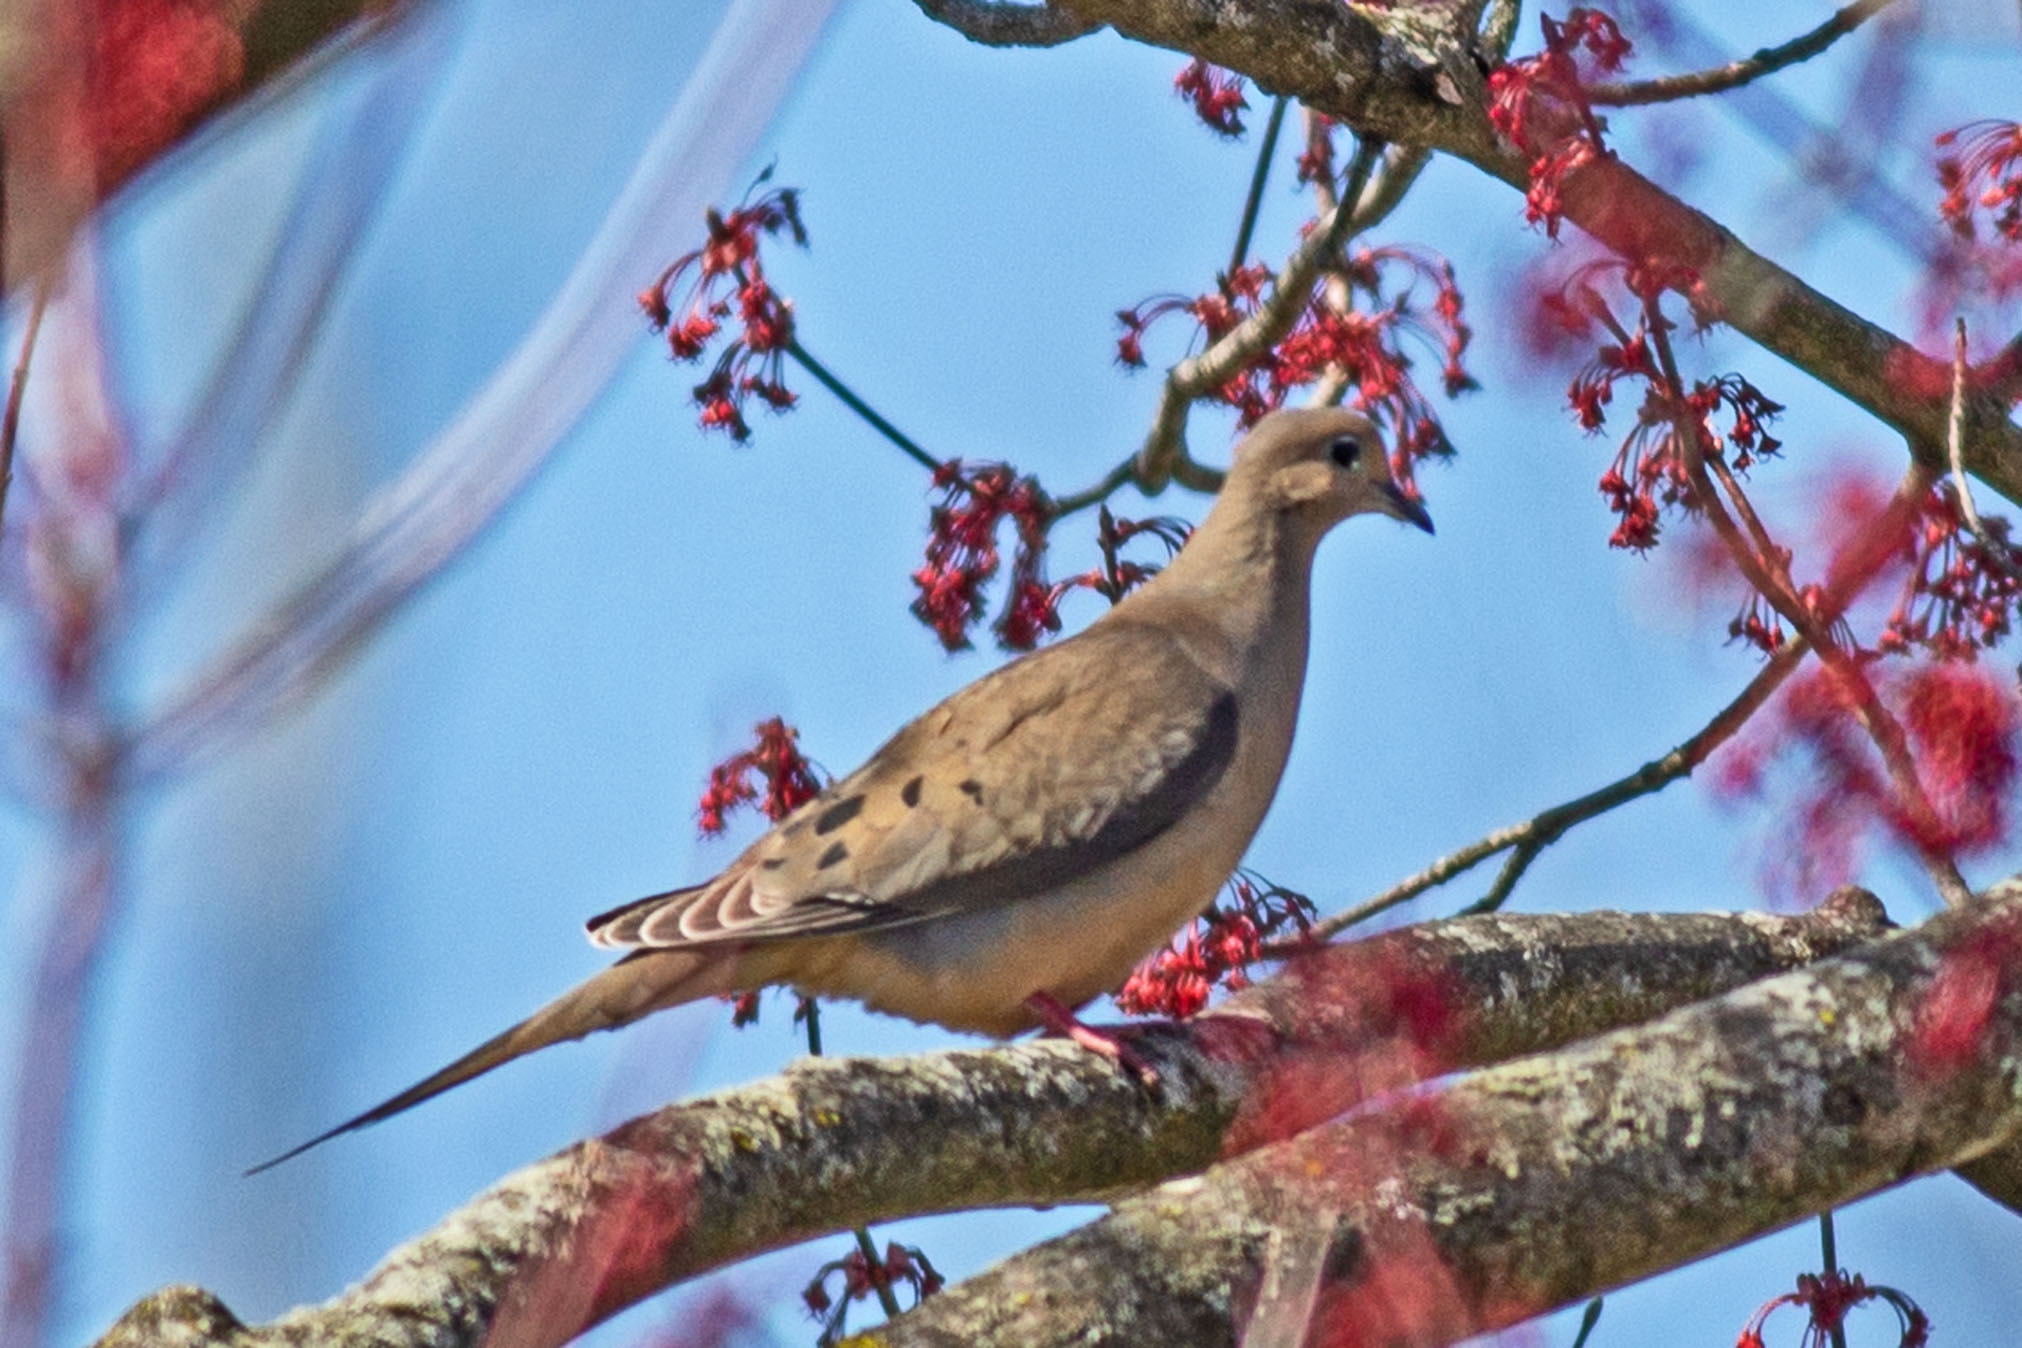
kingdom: Animalia
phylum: Chordata
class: Aves
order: Columbiformes
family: Columbidae
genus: Zenaida
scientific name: Zenaida macroura
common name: Mourning dove
